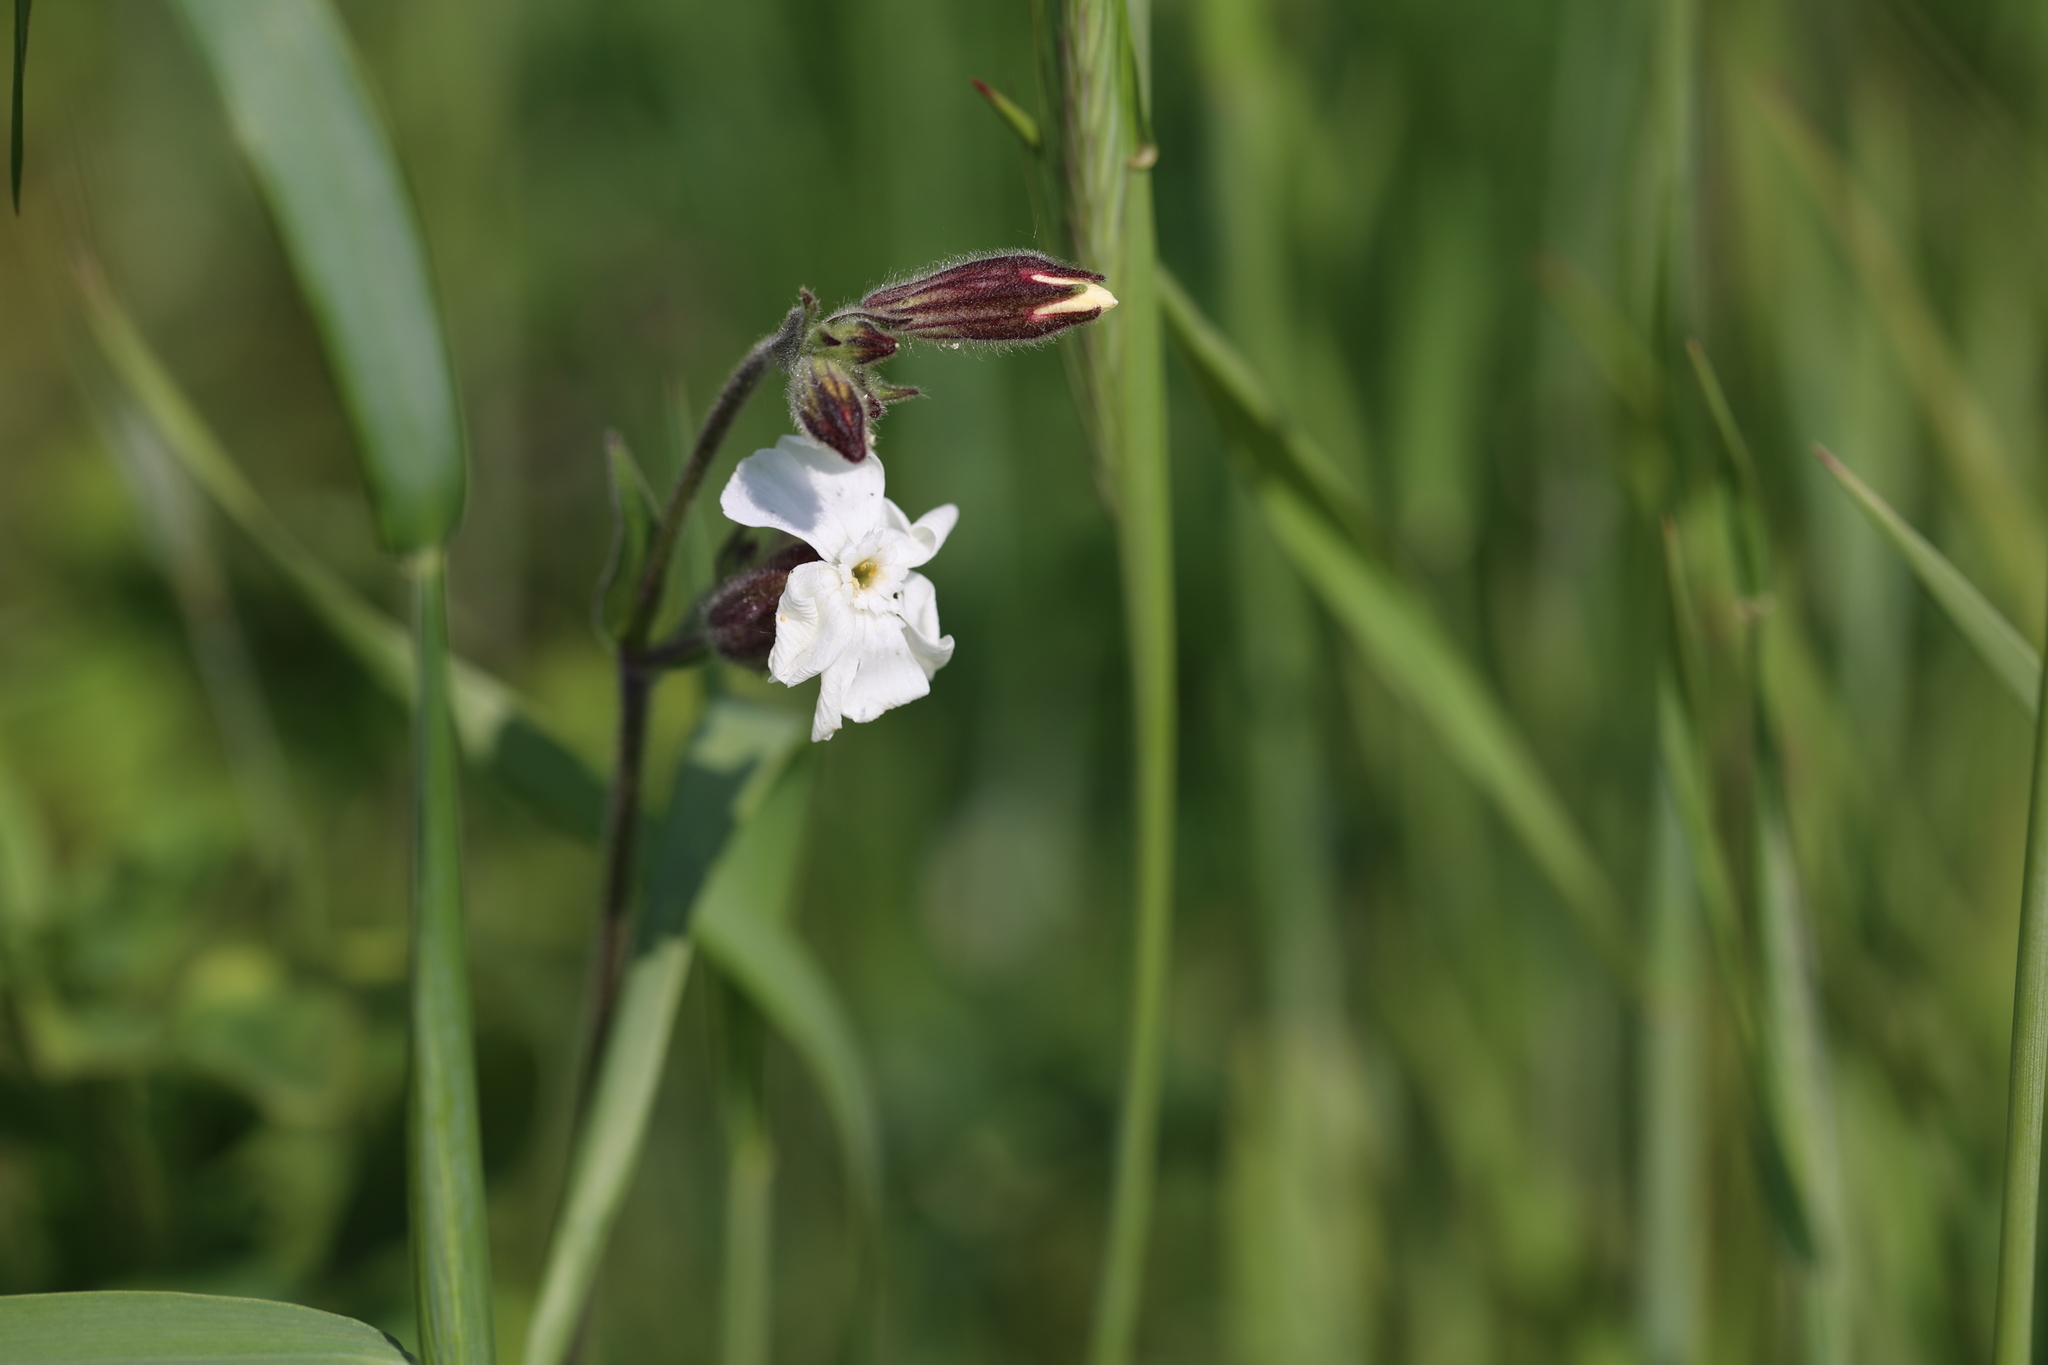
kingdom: Plantae
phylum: Tracheophyta
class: Magnoliopsida
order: Caryophyllales
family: Caryophyllaceae
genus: Silene
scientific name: Silene latifolia
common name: White campion
